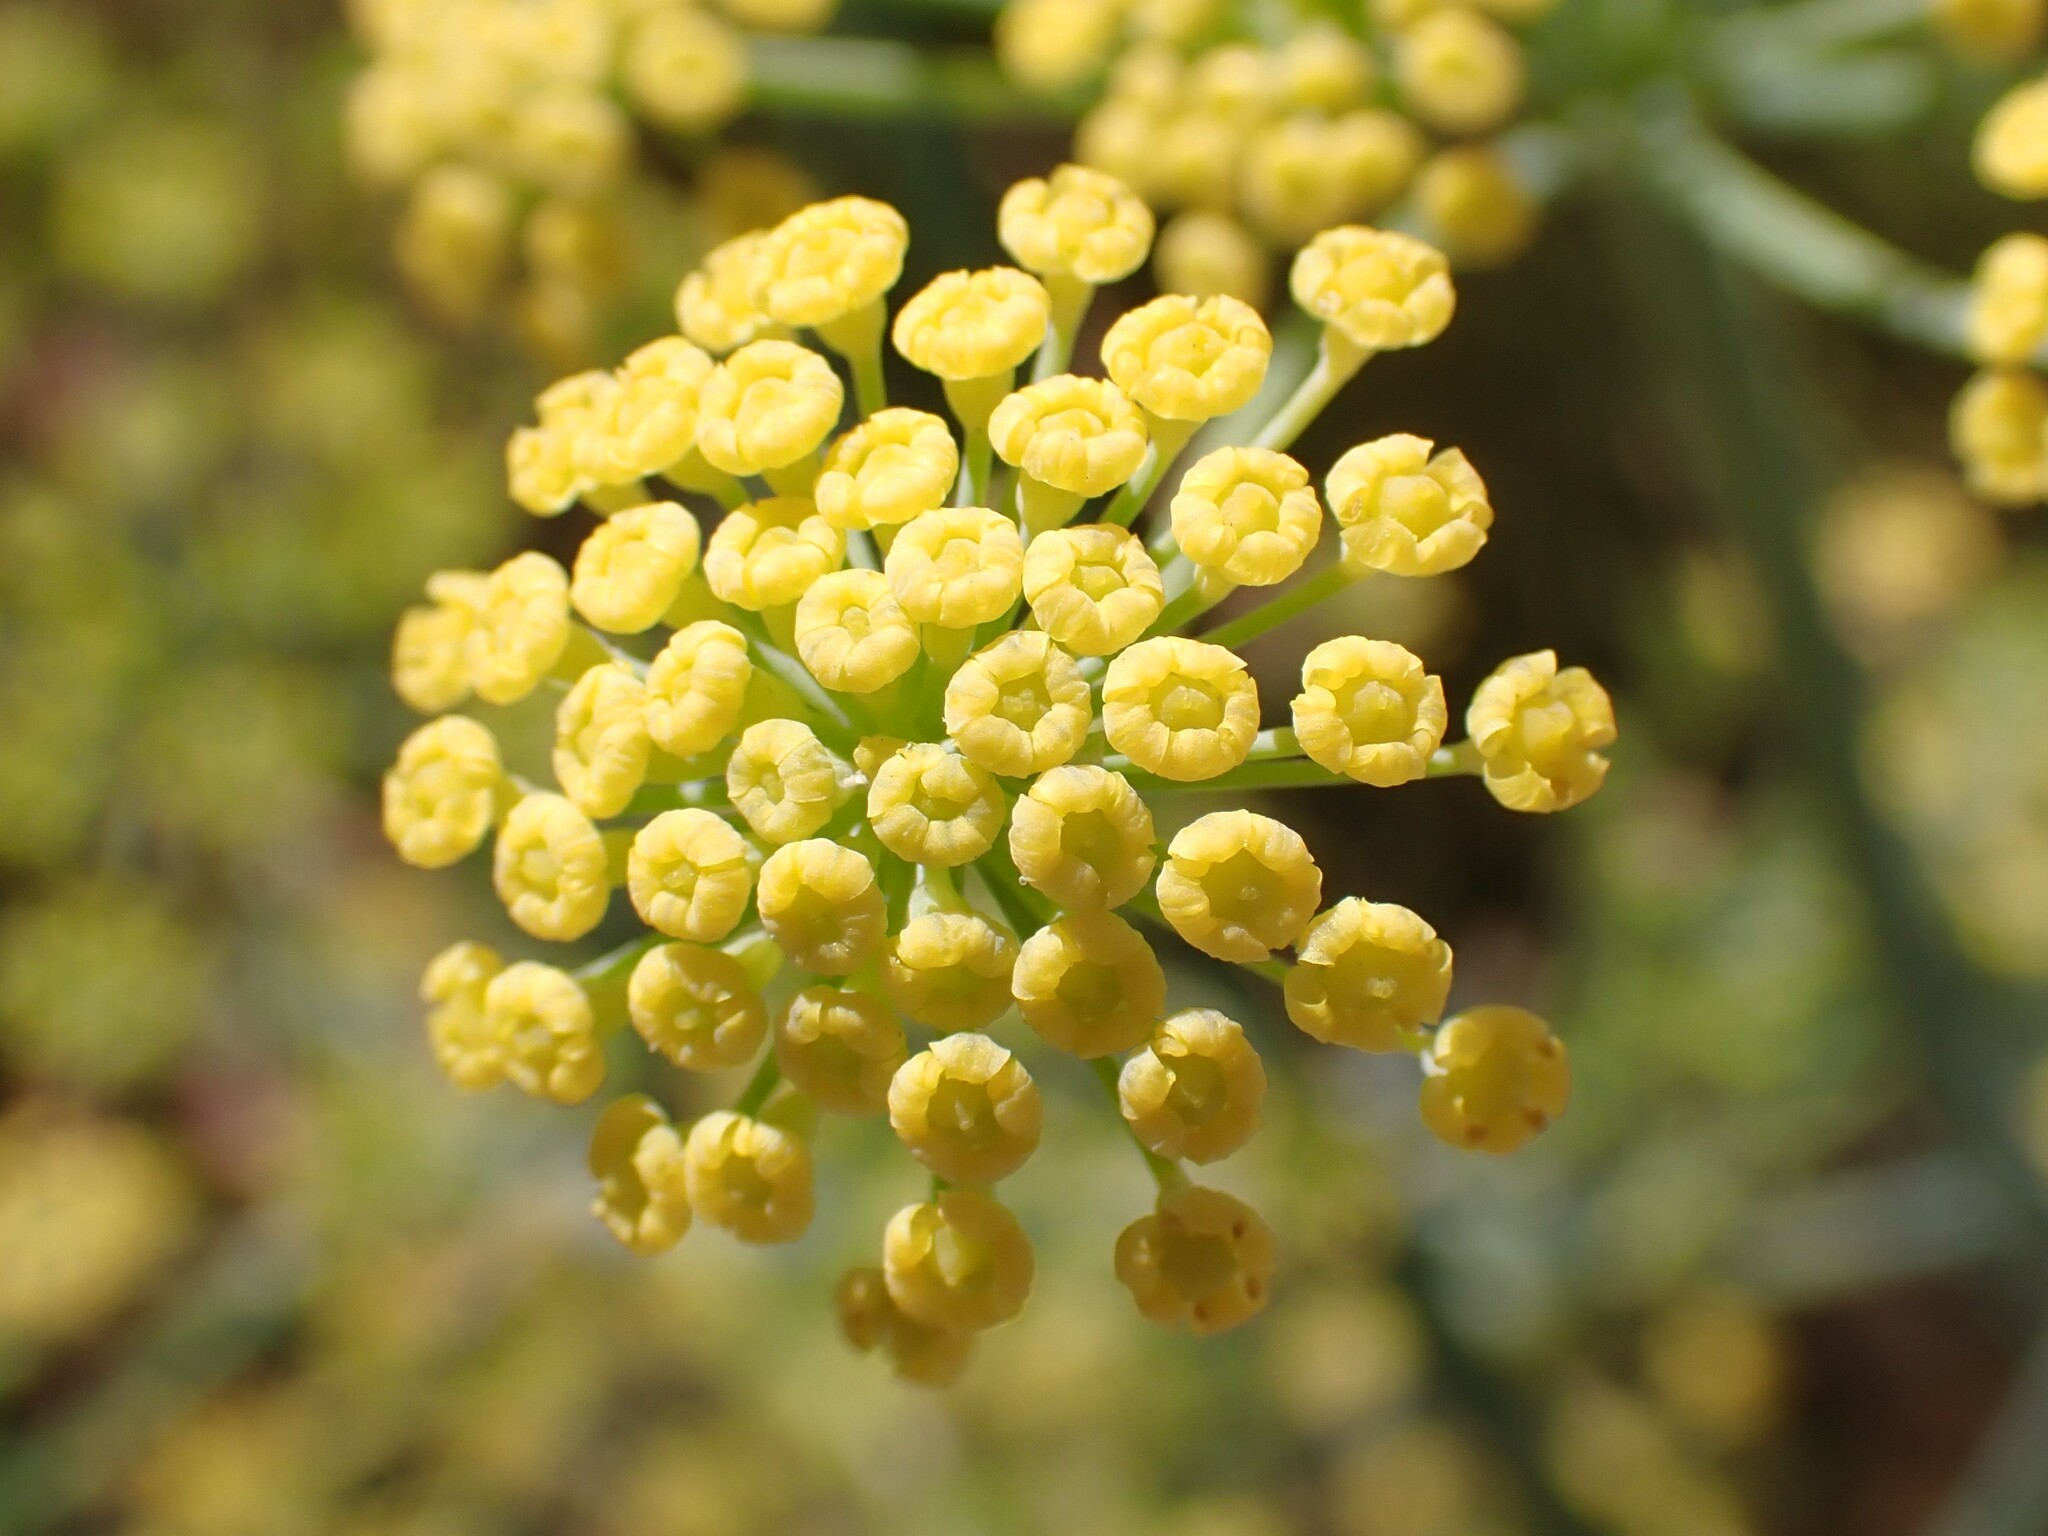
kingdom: Plantae
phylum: Tracheophyta
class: Magnoliopsida
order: Apiales
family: Apiaceae
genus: Foeniculum
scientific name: Foeniculum vulgare
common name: Fennel
